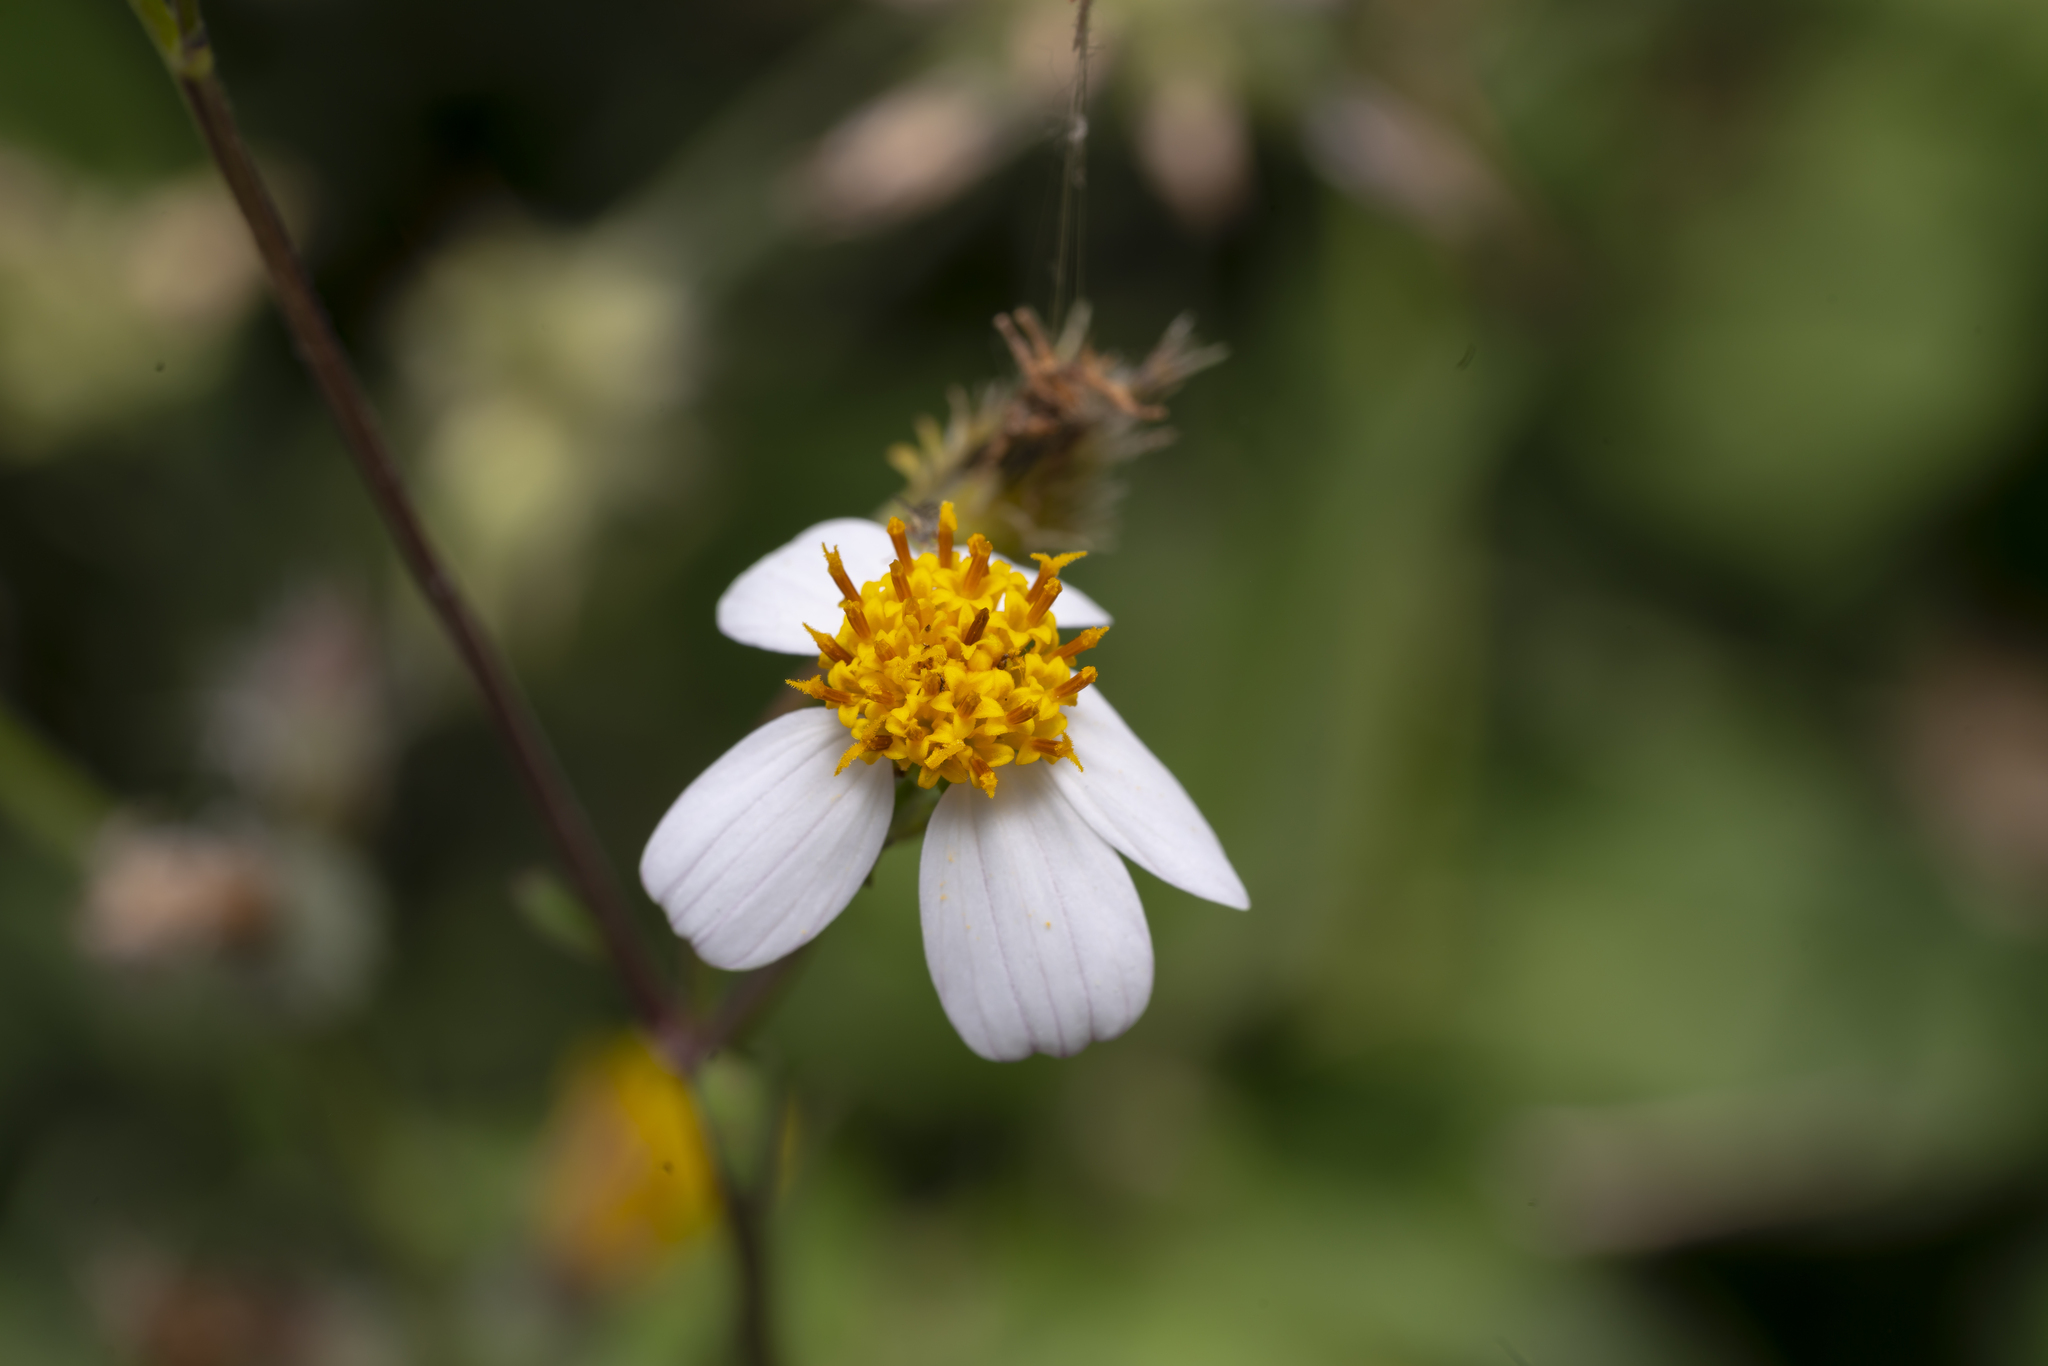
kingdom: Plantae
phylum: Tracheophyta
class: Magnoliopsida
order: Asterales
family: Asteraceae
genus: Bidens
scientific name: Bidens alba
